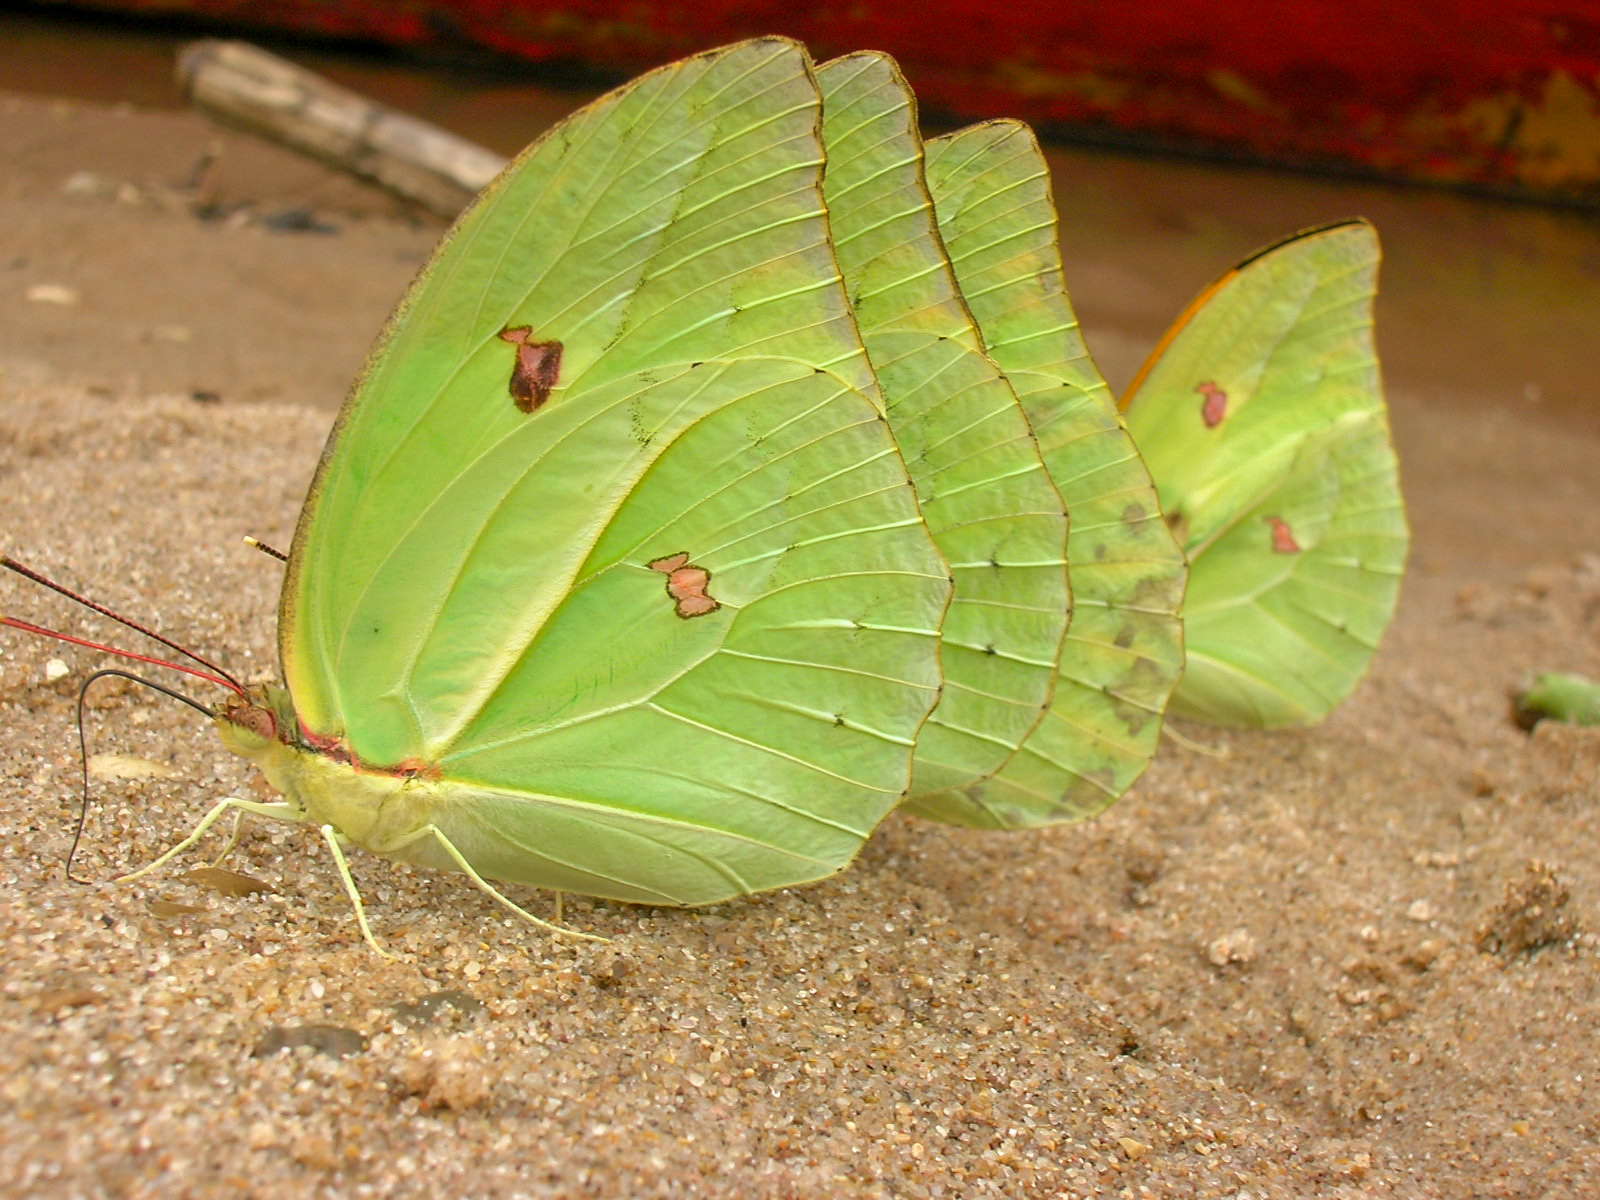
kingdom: Animalia
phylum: Arthropoda
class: Insecta
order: Lepidoptera
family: Pieridae
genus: Anteos
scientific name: Anteos menippe
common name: Orangetip angled-sulphur
